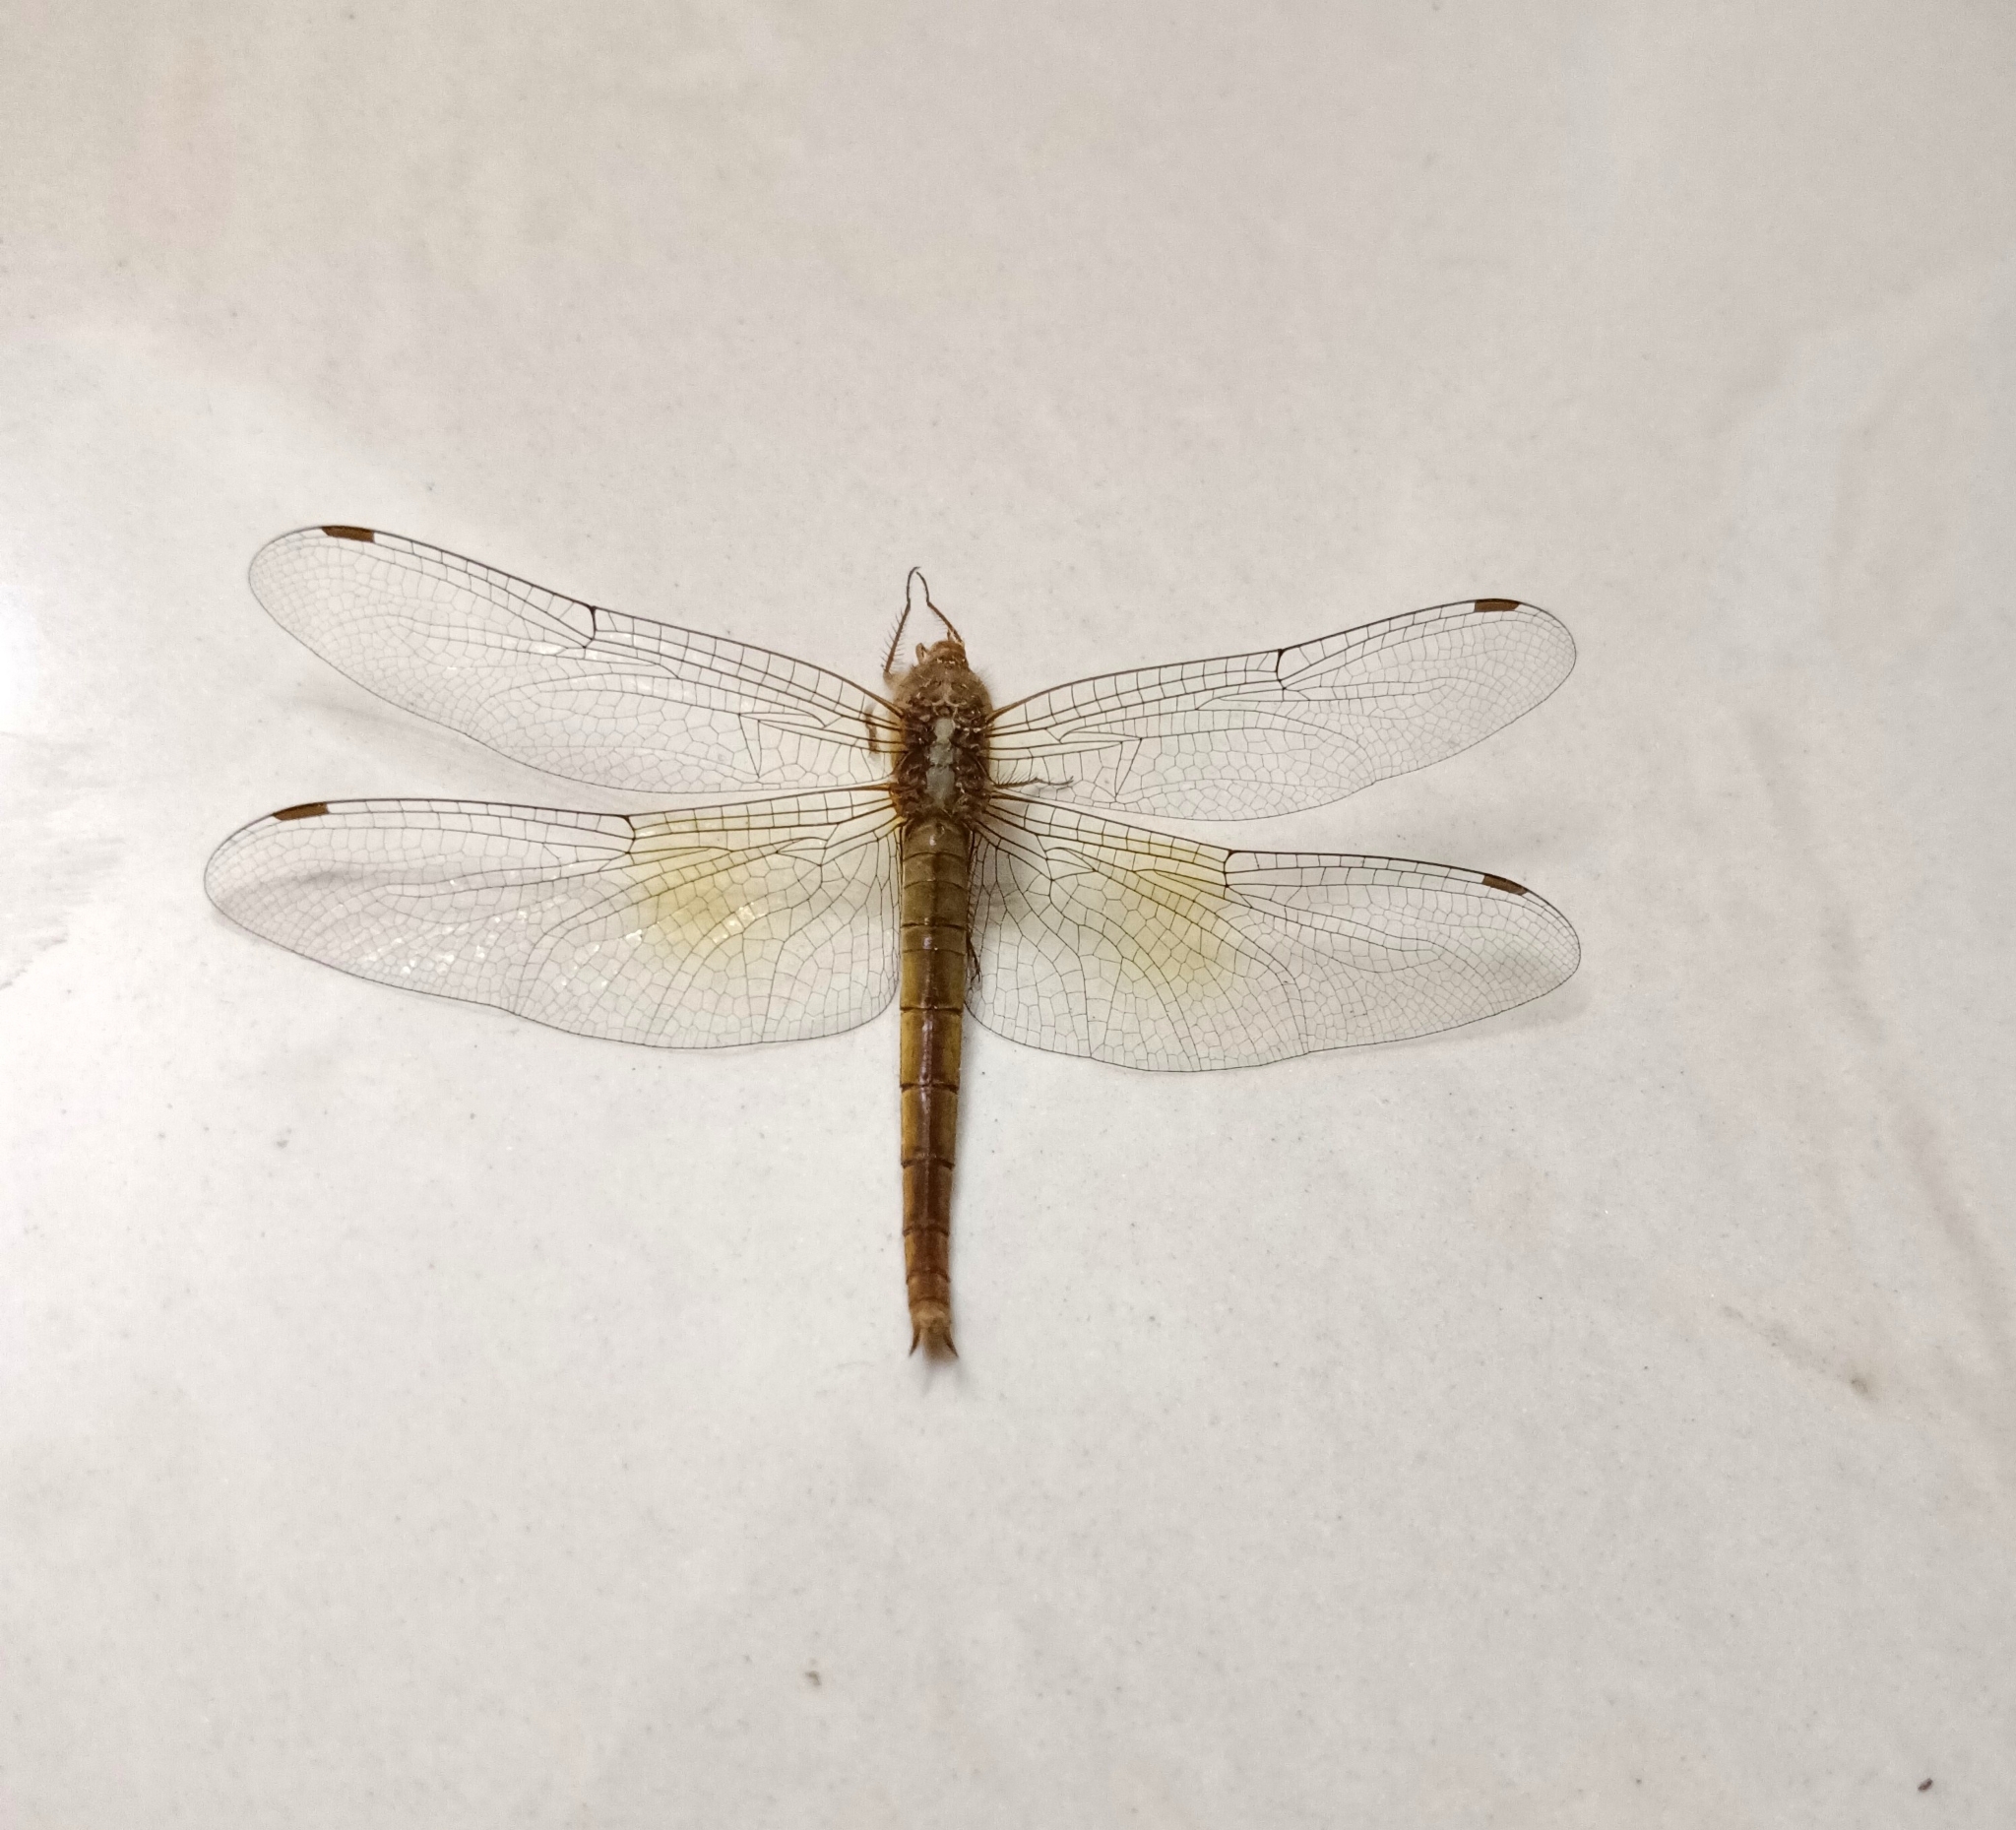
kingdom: Animalia
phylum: Arthropoda
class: Insecta
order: Odonata
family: Libellulidae
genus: Tholymis
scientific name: Tholymis tillarga
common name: Coral-tailed cloud wing
